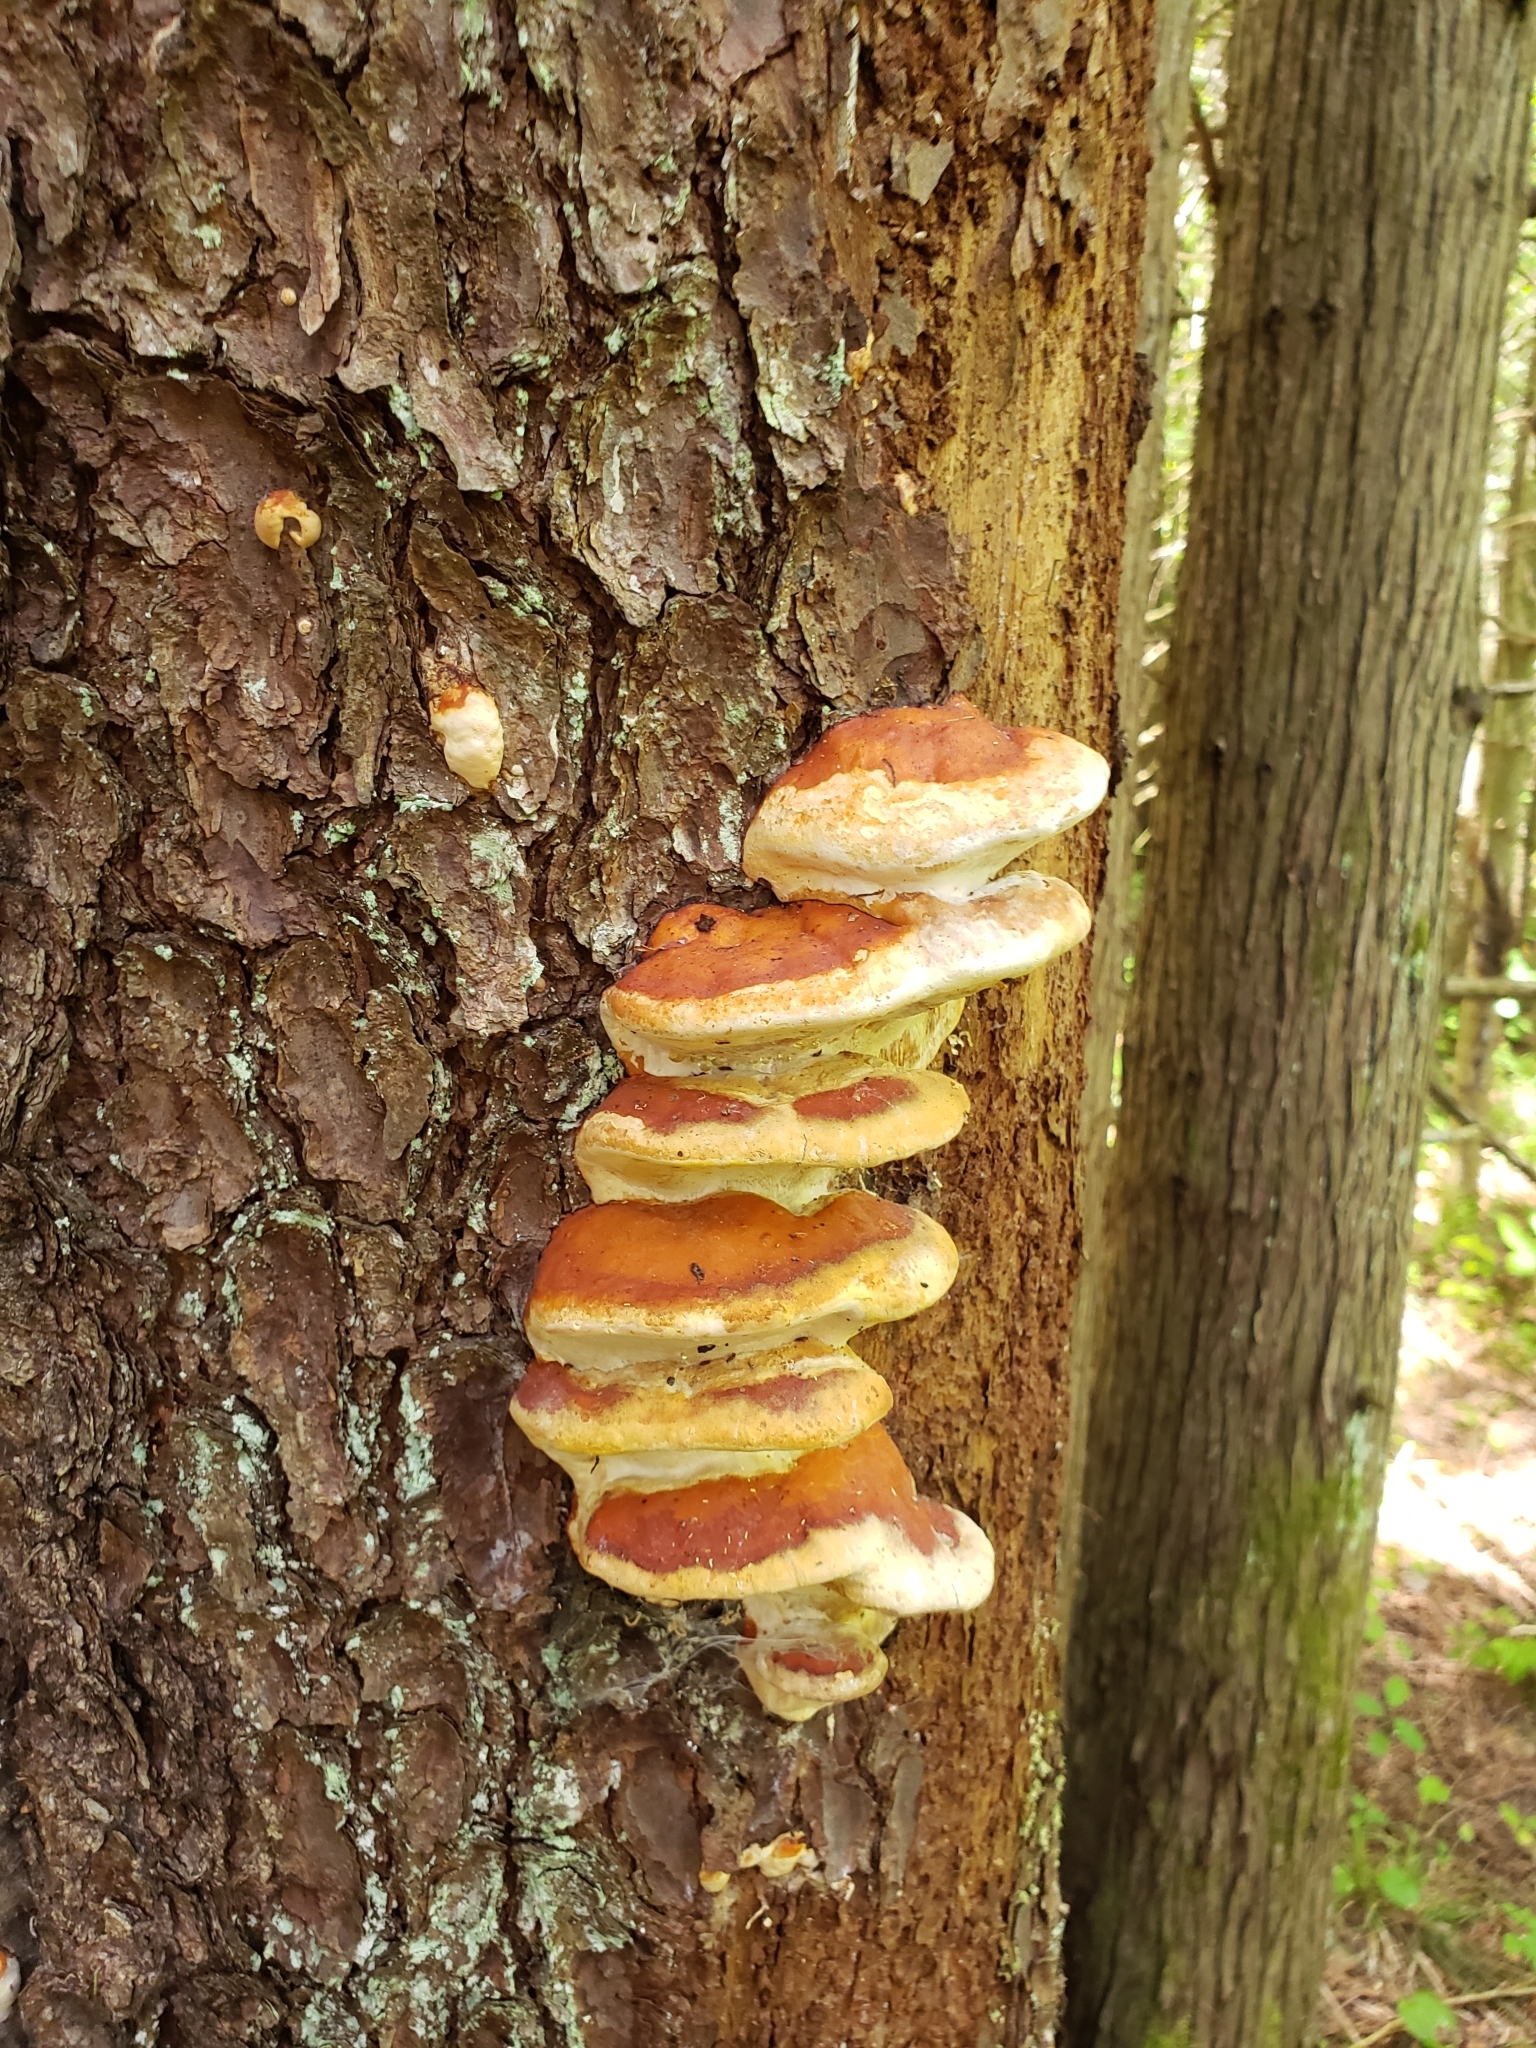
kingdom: Fungi
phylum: Basidiomycota
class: Agaricomycetes
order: Polyporales
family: Fomitopsidaceae
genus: Fomitopsis
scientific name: Fomitopsis mounceae
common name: Northern red belt
